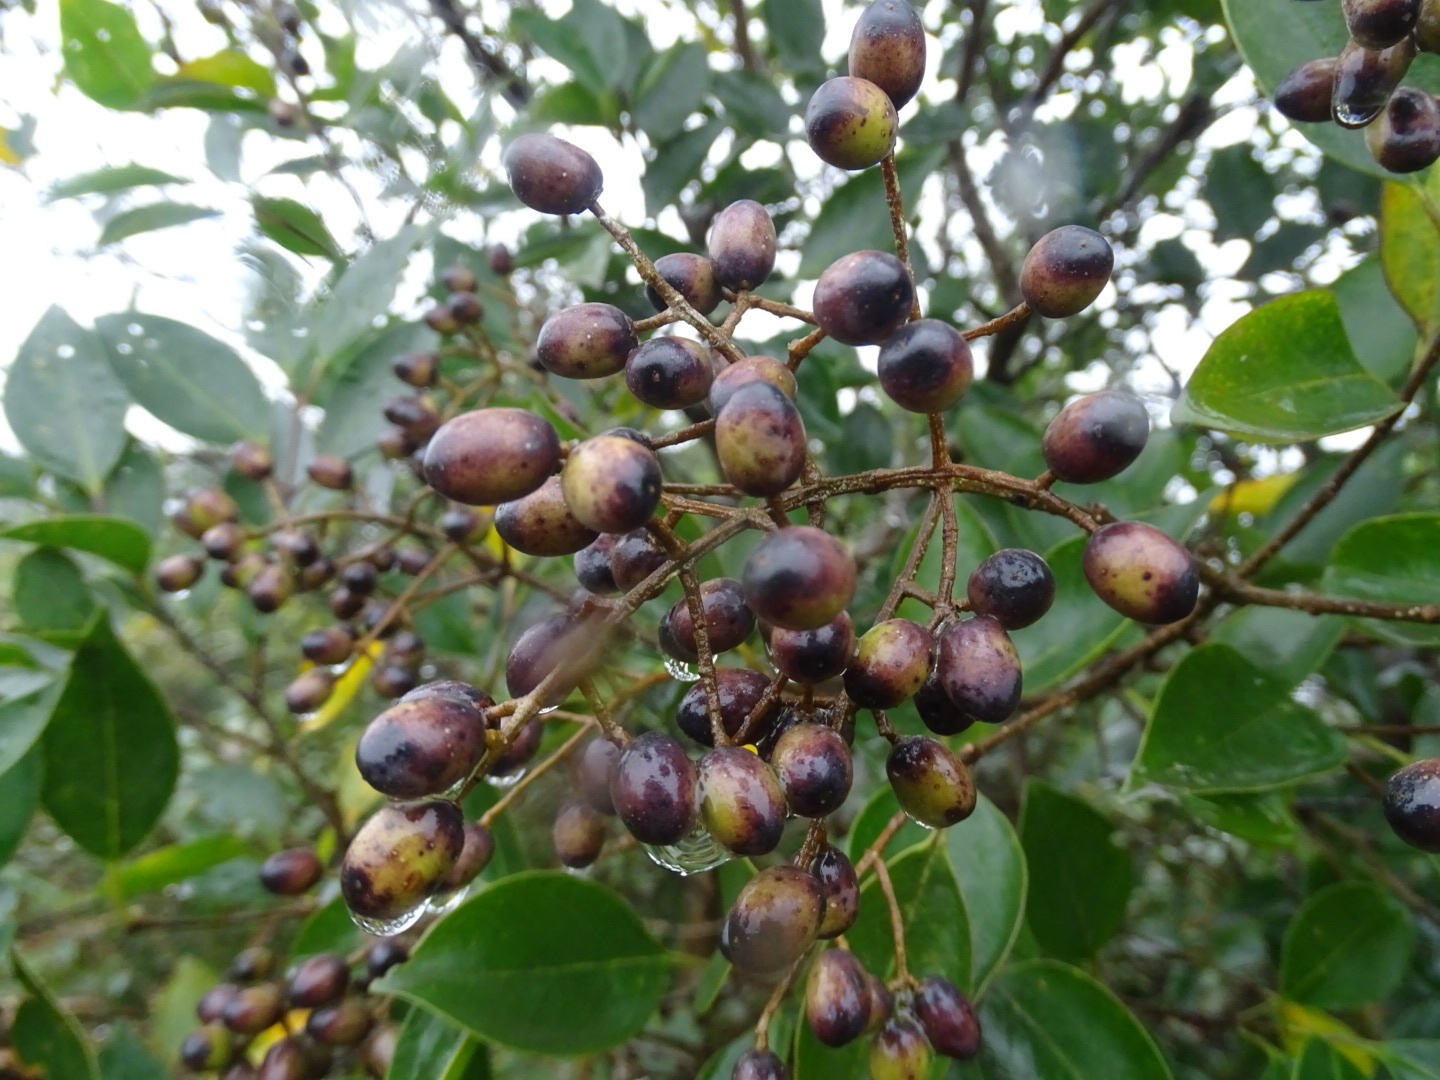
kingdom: Plantae
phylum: Tracheophyta
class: Magnoliopsida
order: Lamiales
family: Oleaceae
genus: Ligustrum
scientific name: Ligustrum liukiuense
